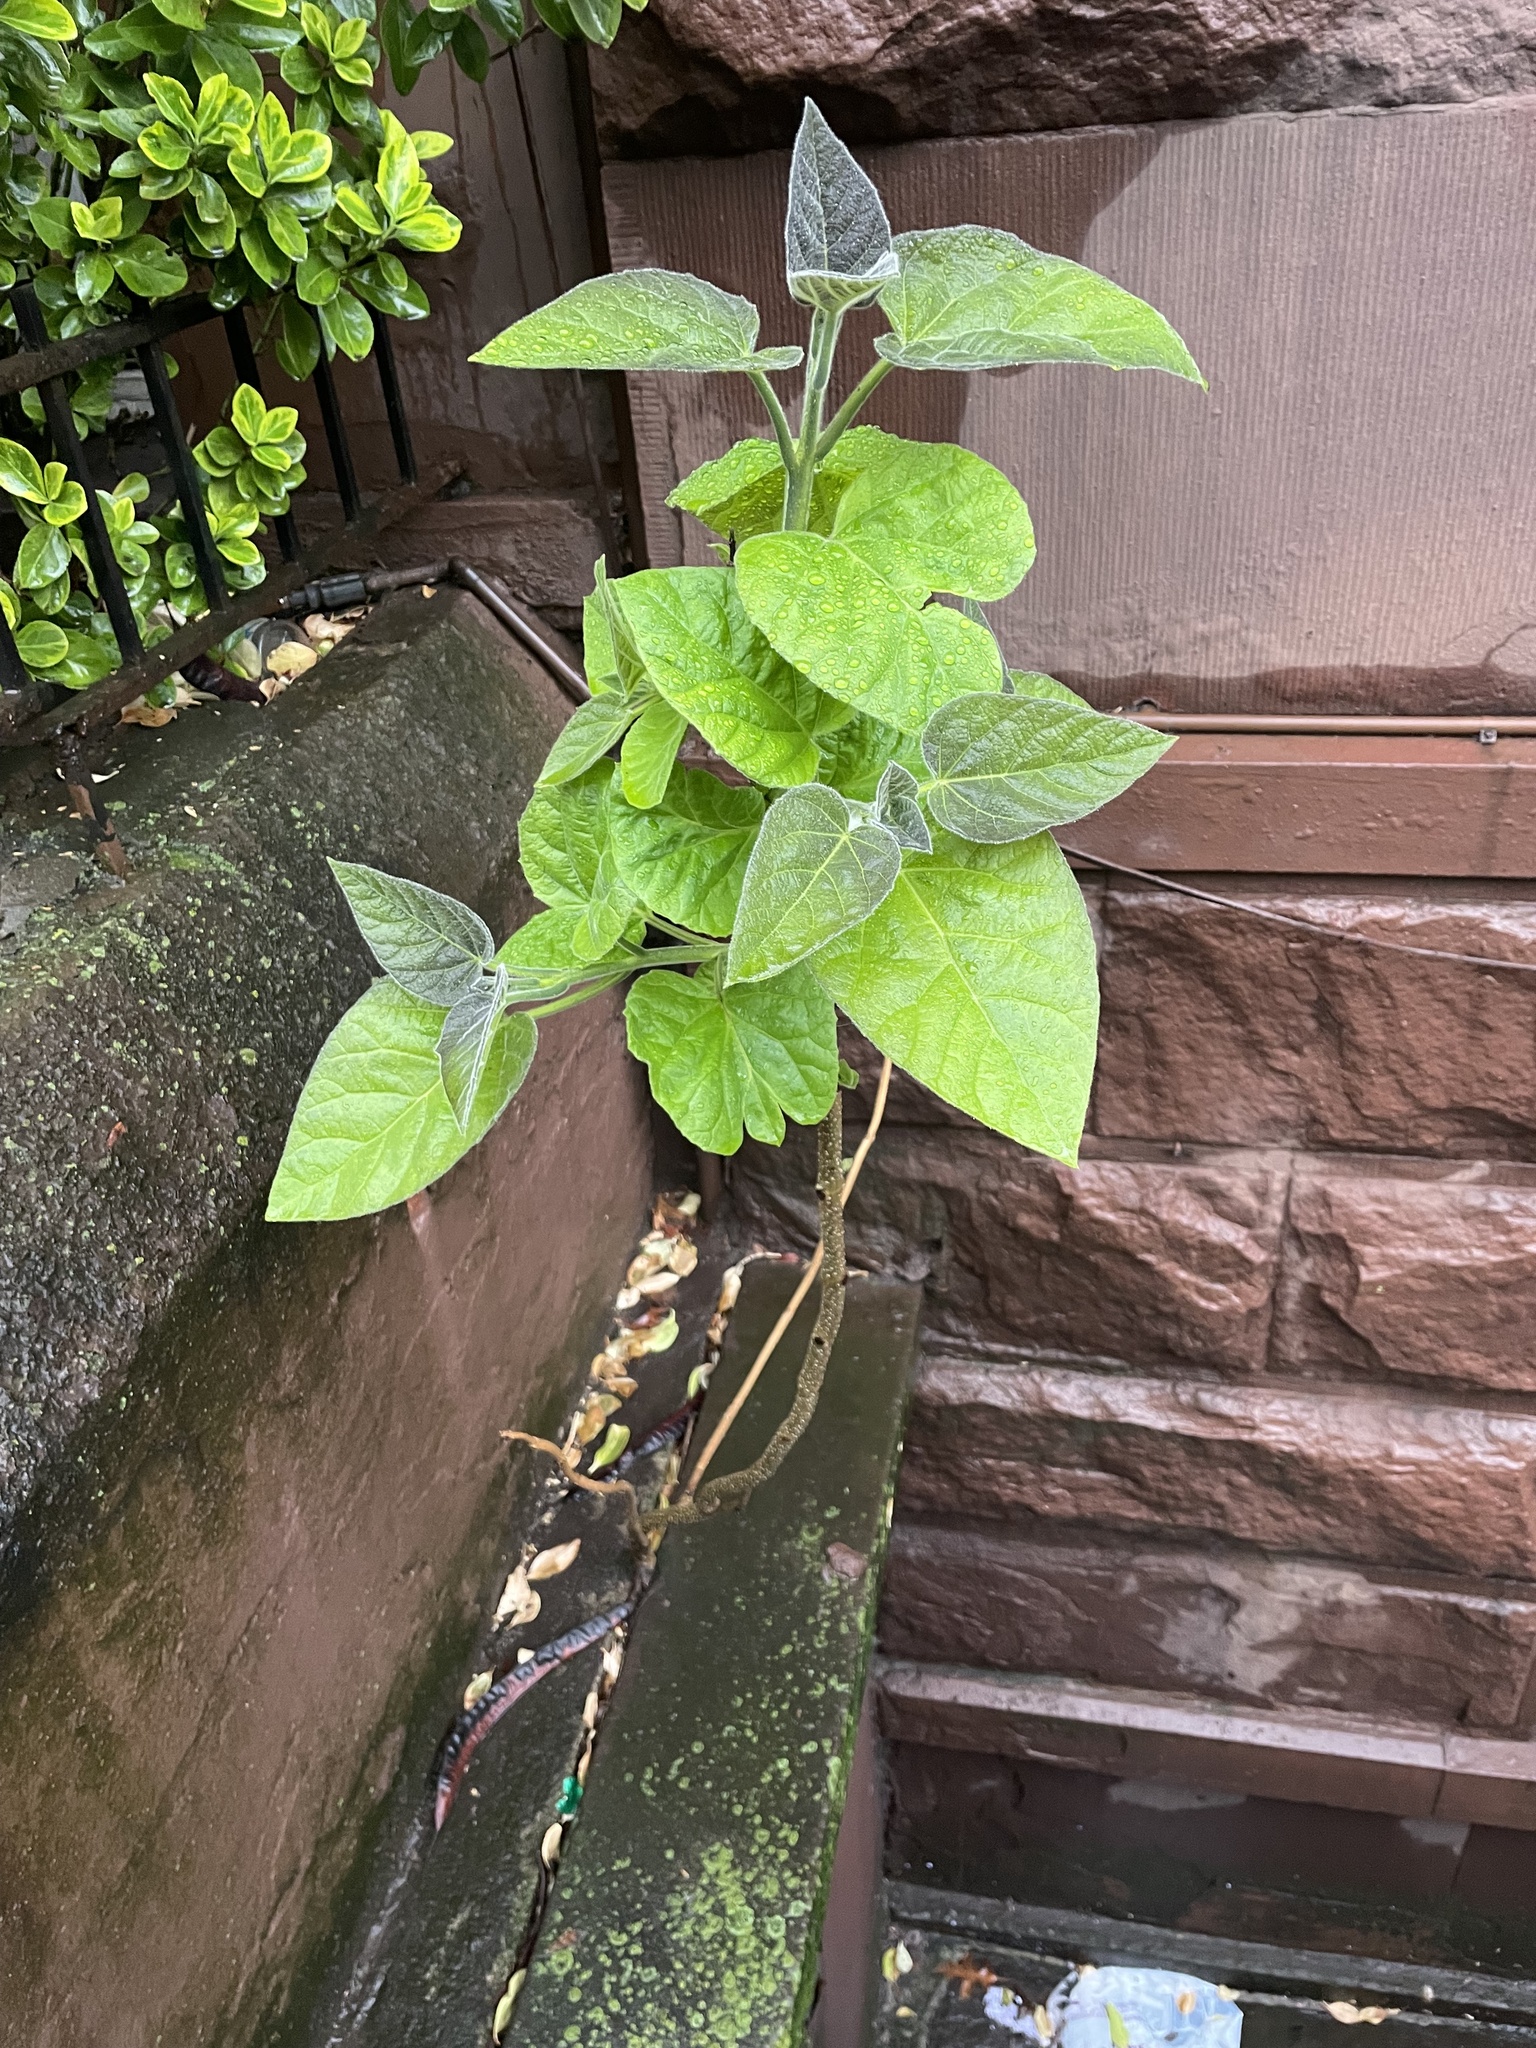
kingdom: Plantae
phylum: Tracheophyta
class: Magnoliopsida
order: Lamiales
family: Paulowniaceae
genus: Paulownia
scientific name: Paulownia tomentosa
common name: Foxglove-tree
